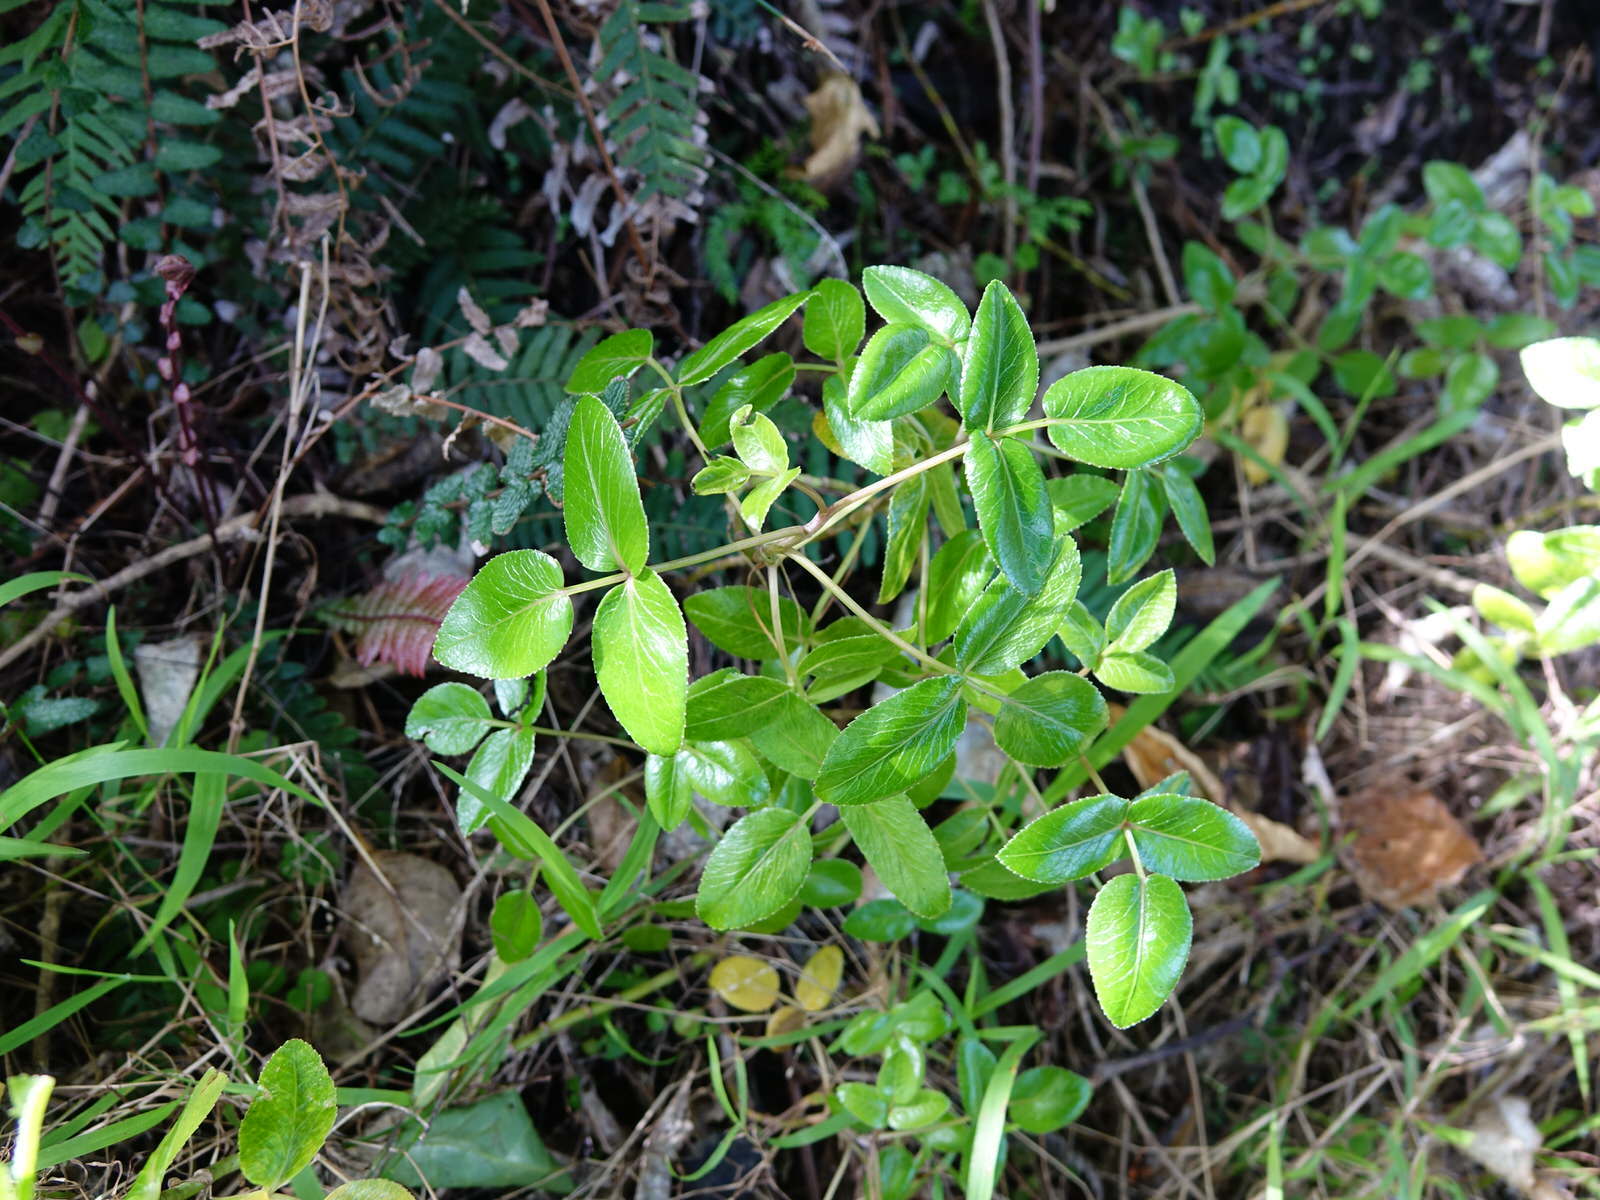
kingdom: Plantae
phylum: Tracheophyta
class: Magnoliopsida
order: Apiales
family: Apiaceae
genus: Scandia
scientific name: Scandia rosifolia
